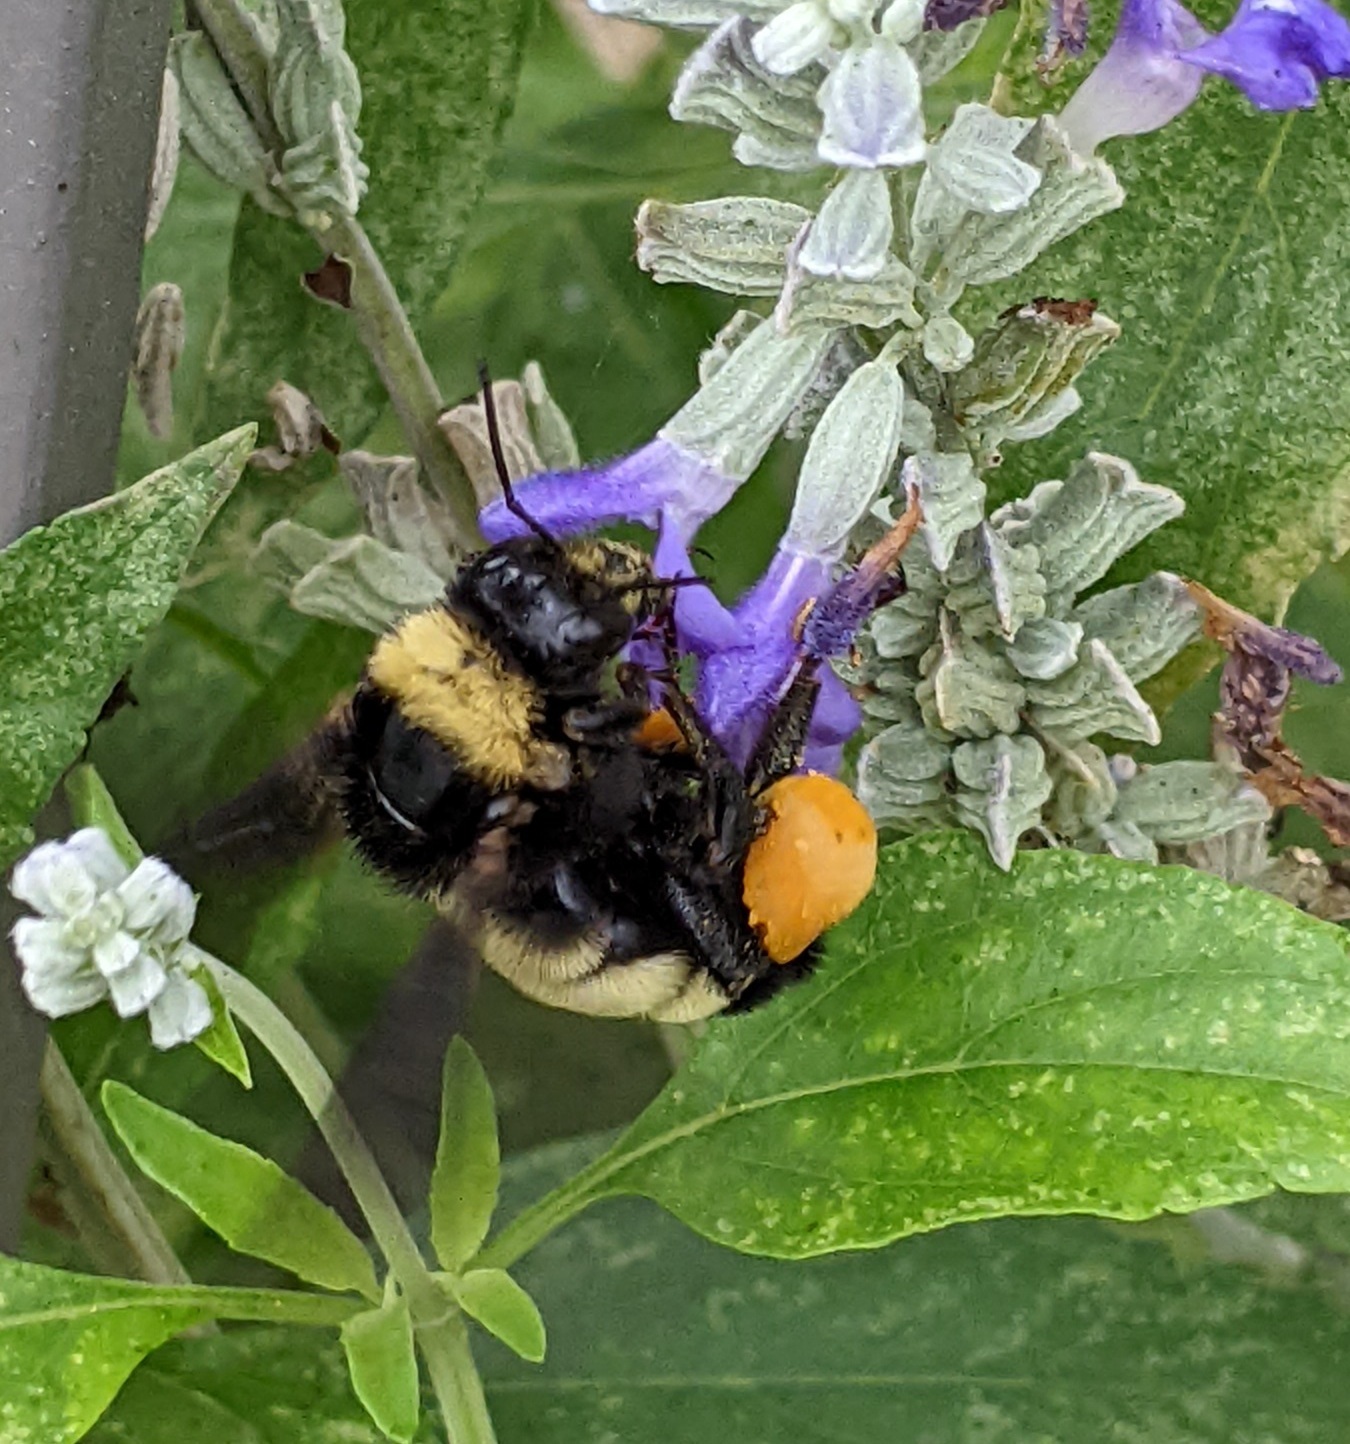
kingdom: Animalia
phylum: Arthropoda
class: Insecta
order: Hymenoptera
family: Apidae
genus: Bombus
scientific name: Bombus pensylvanicus
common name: Bumble bee
